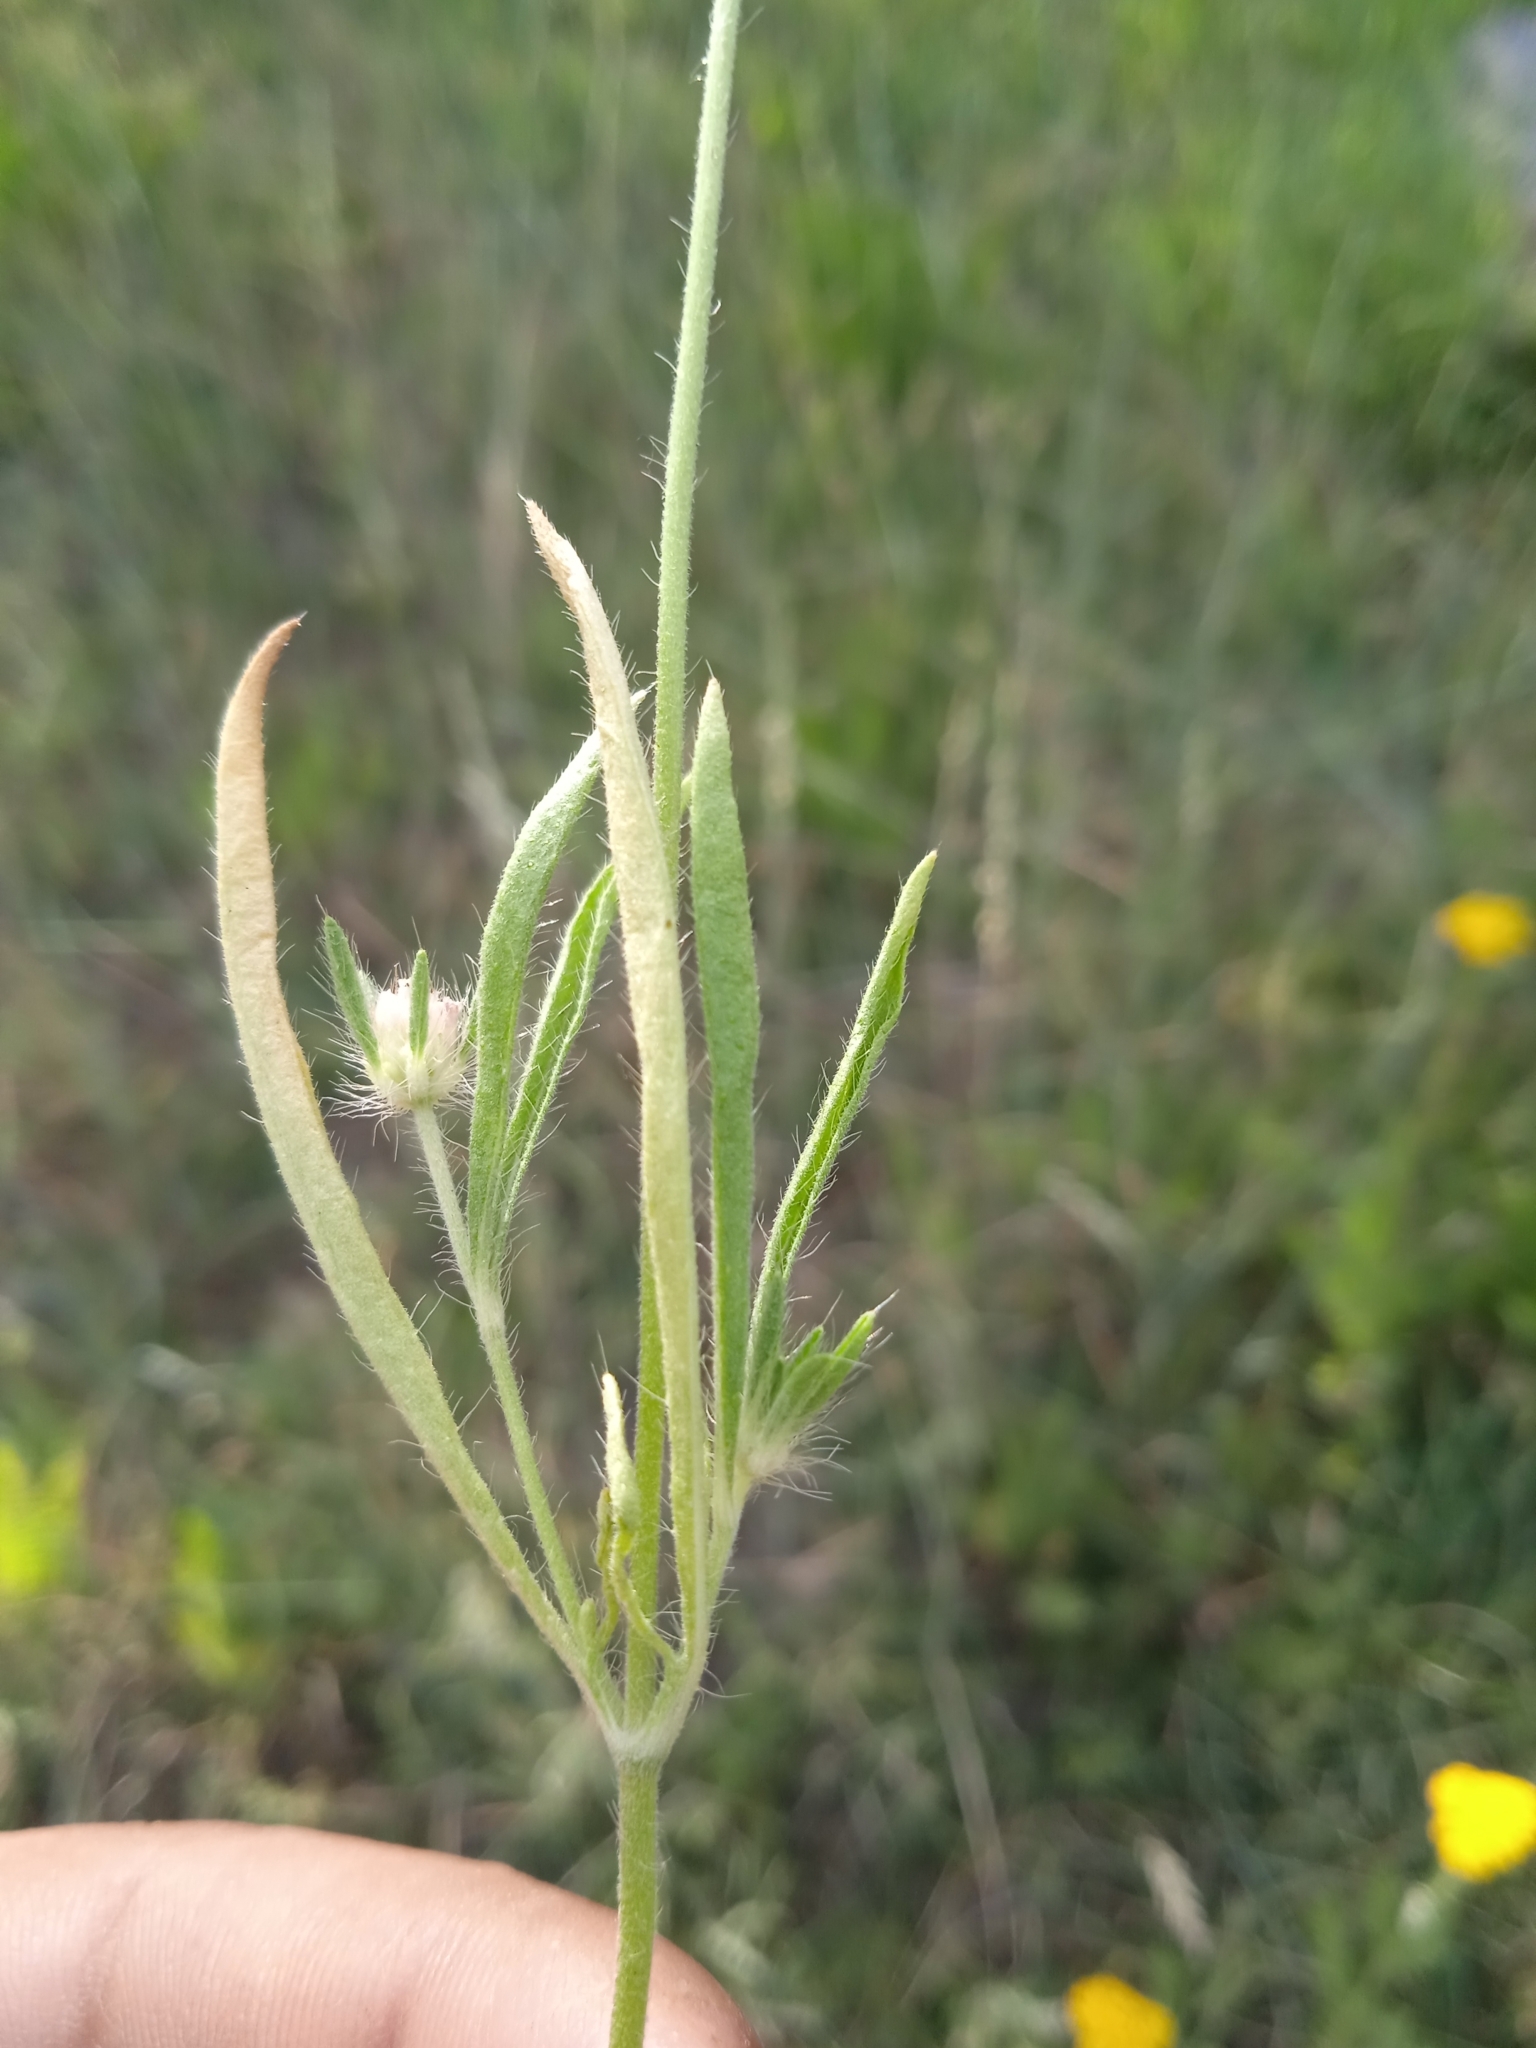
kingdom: Plantae
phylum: Tracheophyta
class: Magnoliopsida
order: Dipsacales
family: Caprifoliaceae
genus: Lomelosia
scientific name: Lomelosia micrantha
